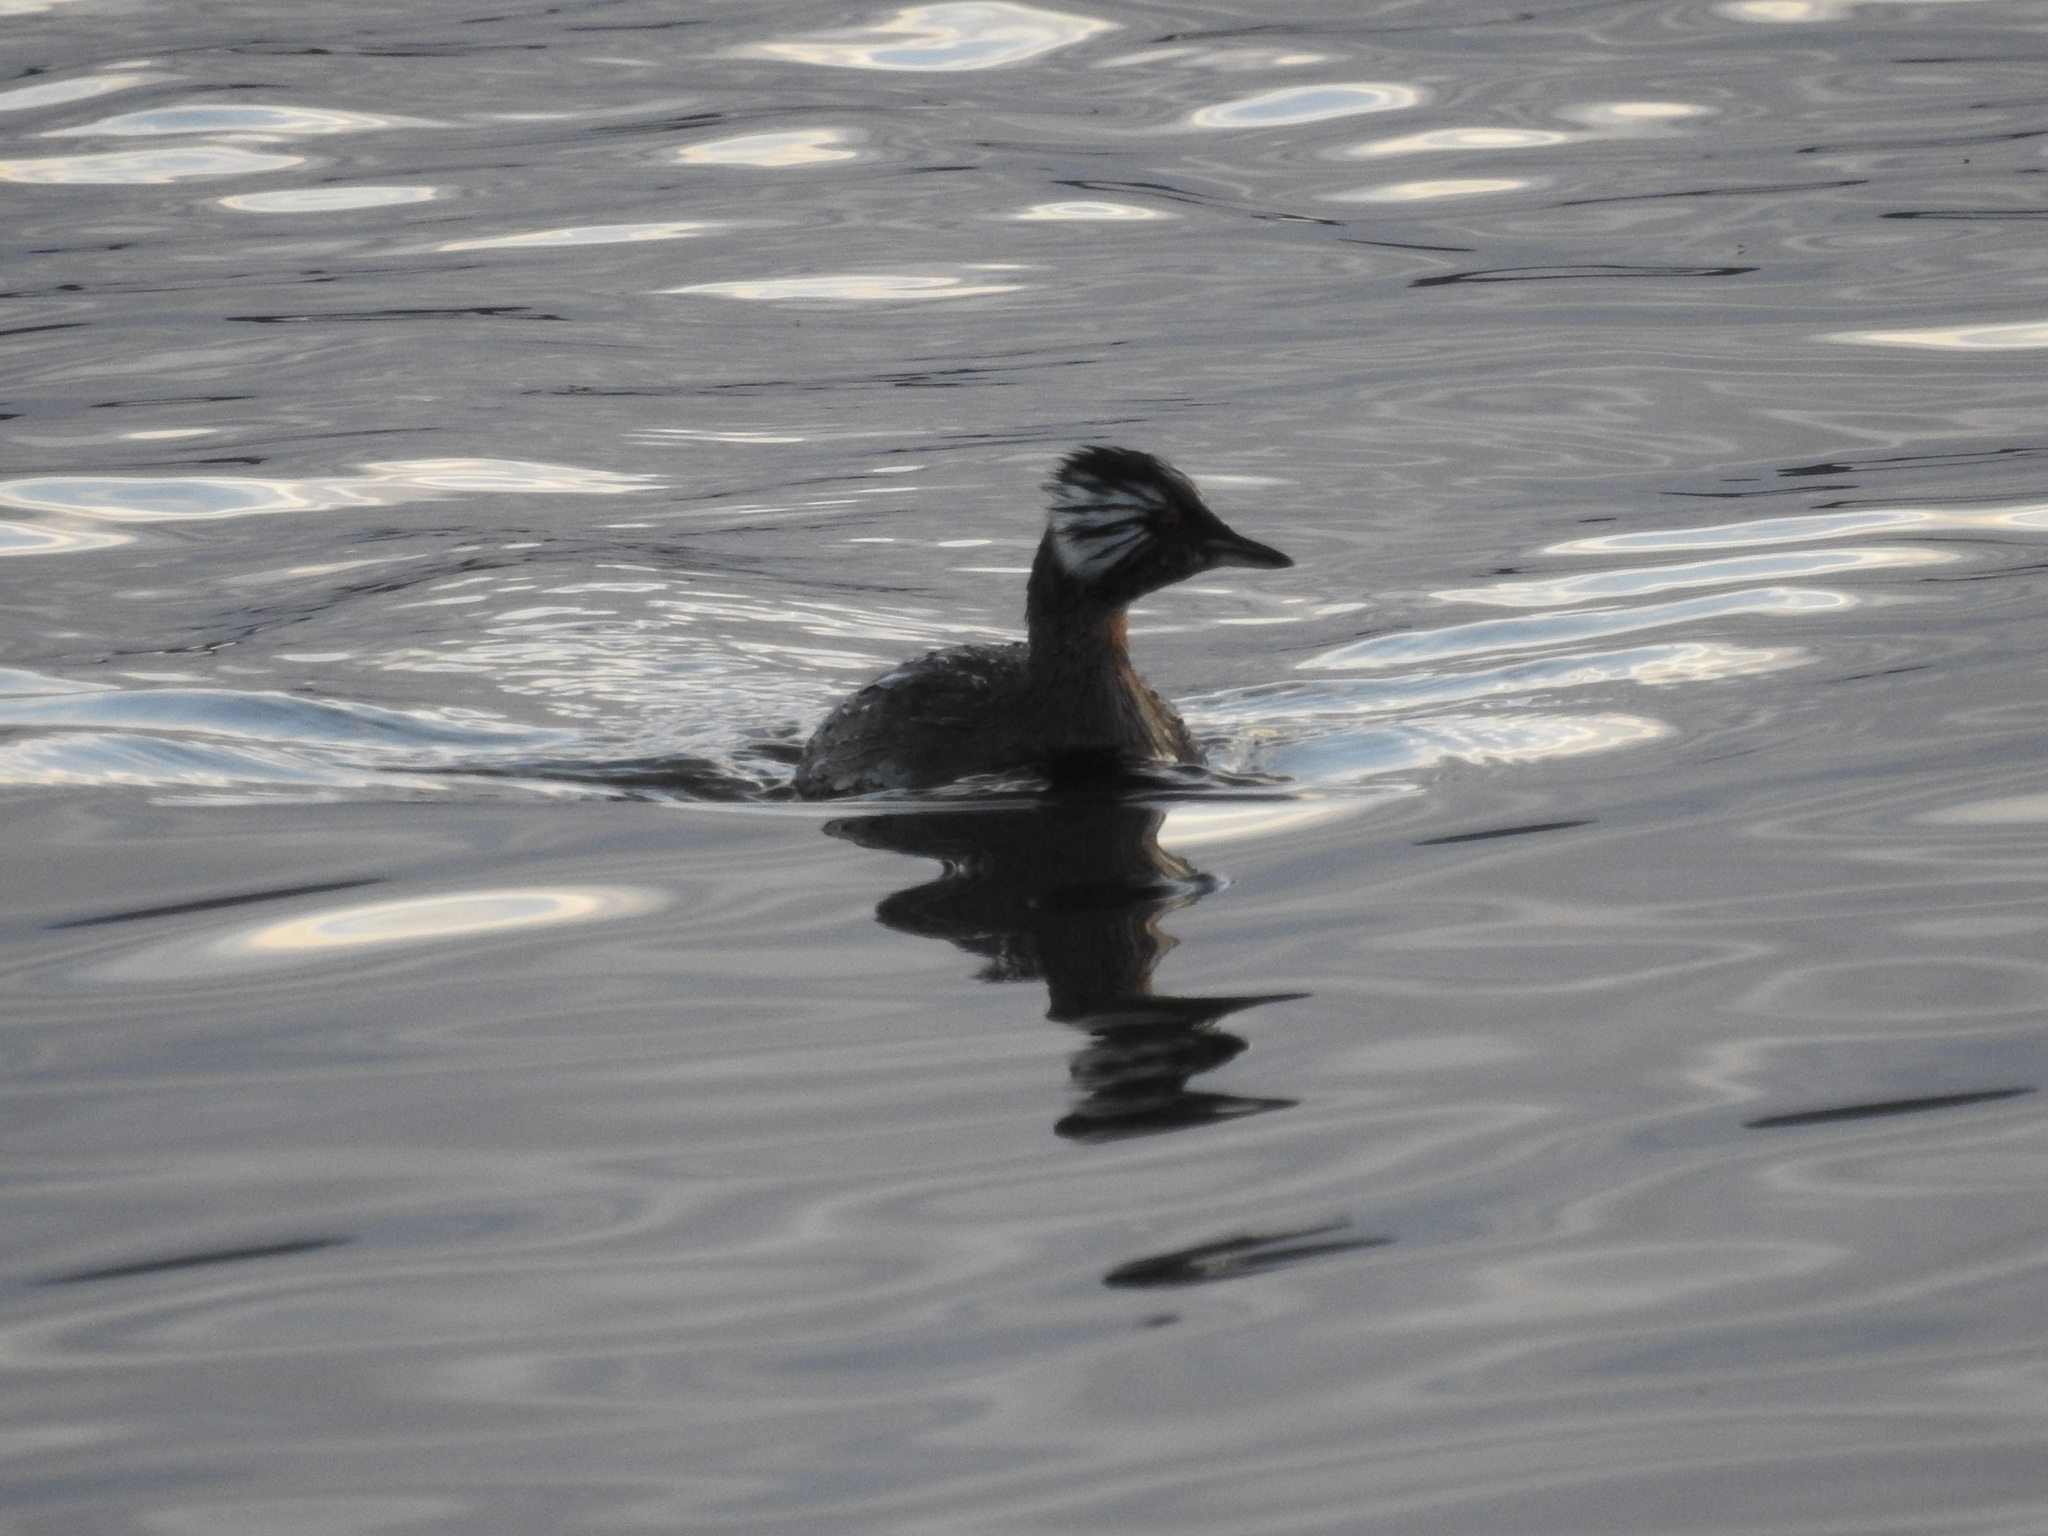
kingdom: Animalia
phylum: Chordata
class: Aves
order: Podicipediformes
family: Podicipedidae
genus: Rollandia
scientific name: Rollandia rolland
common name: White-tufted grebe
